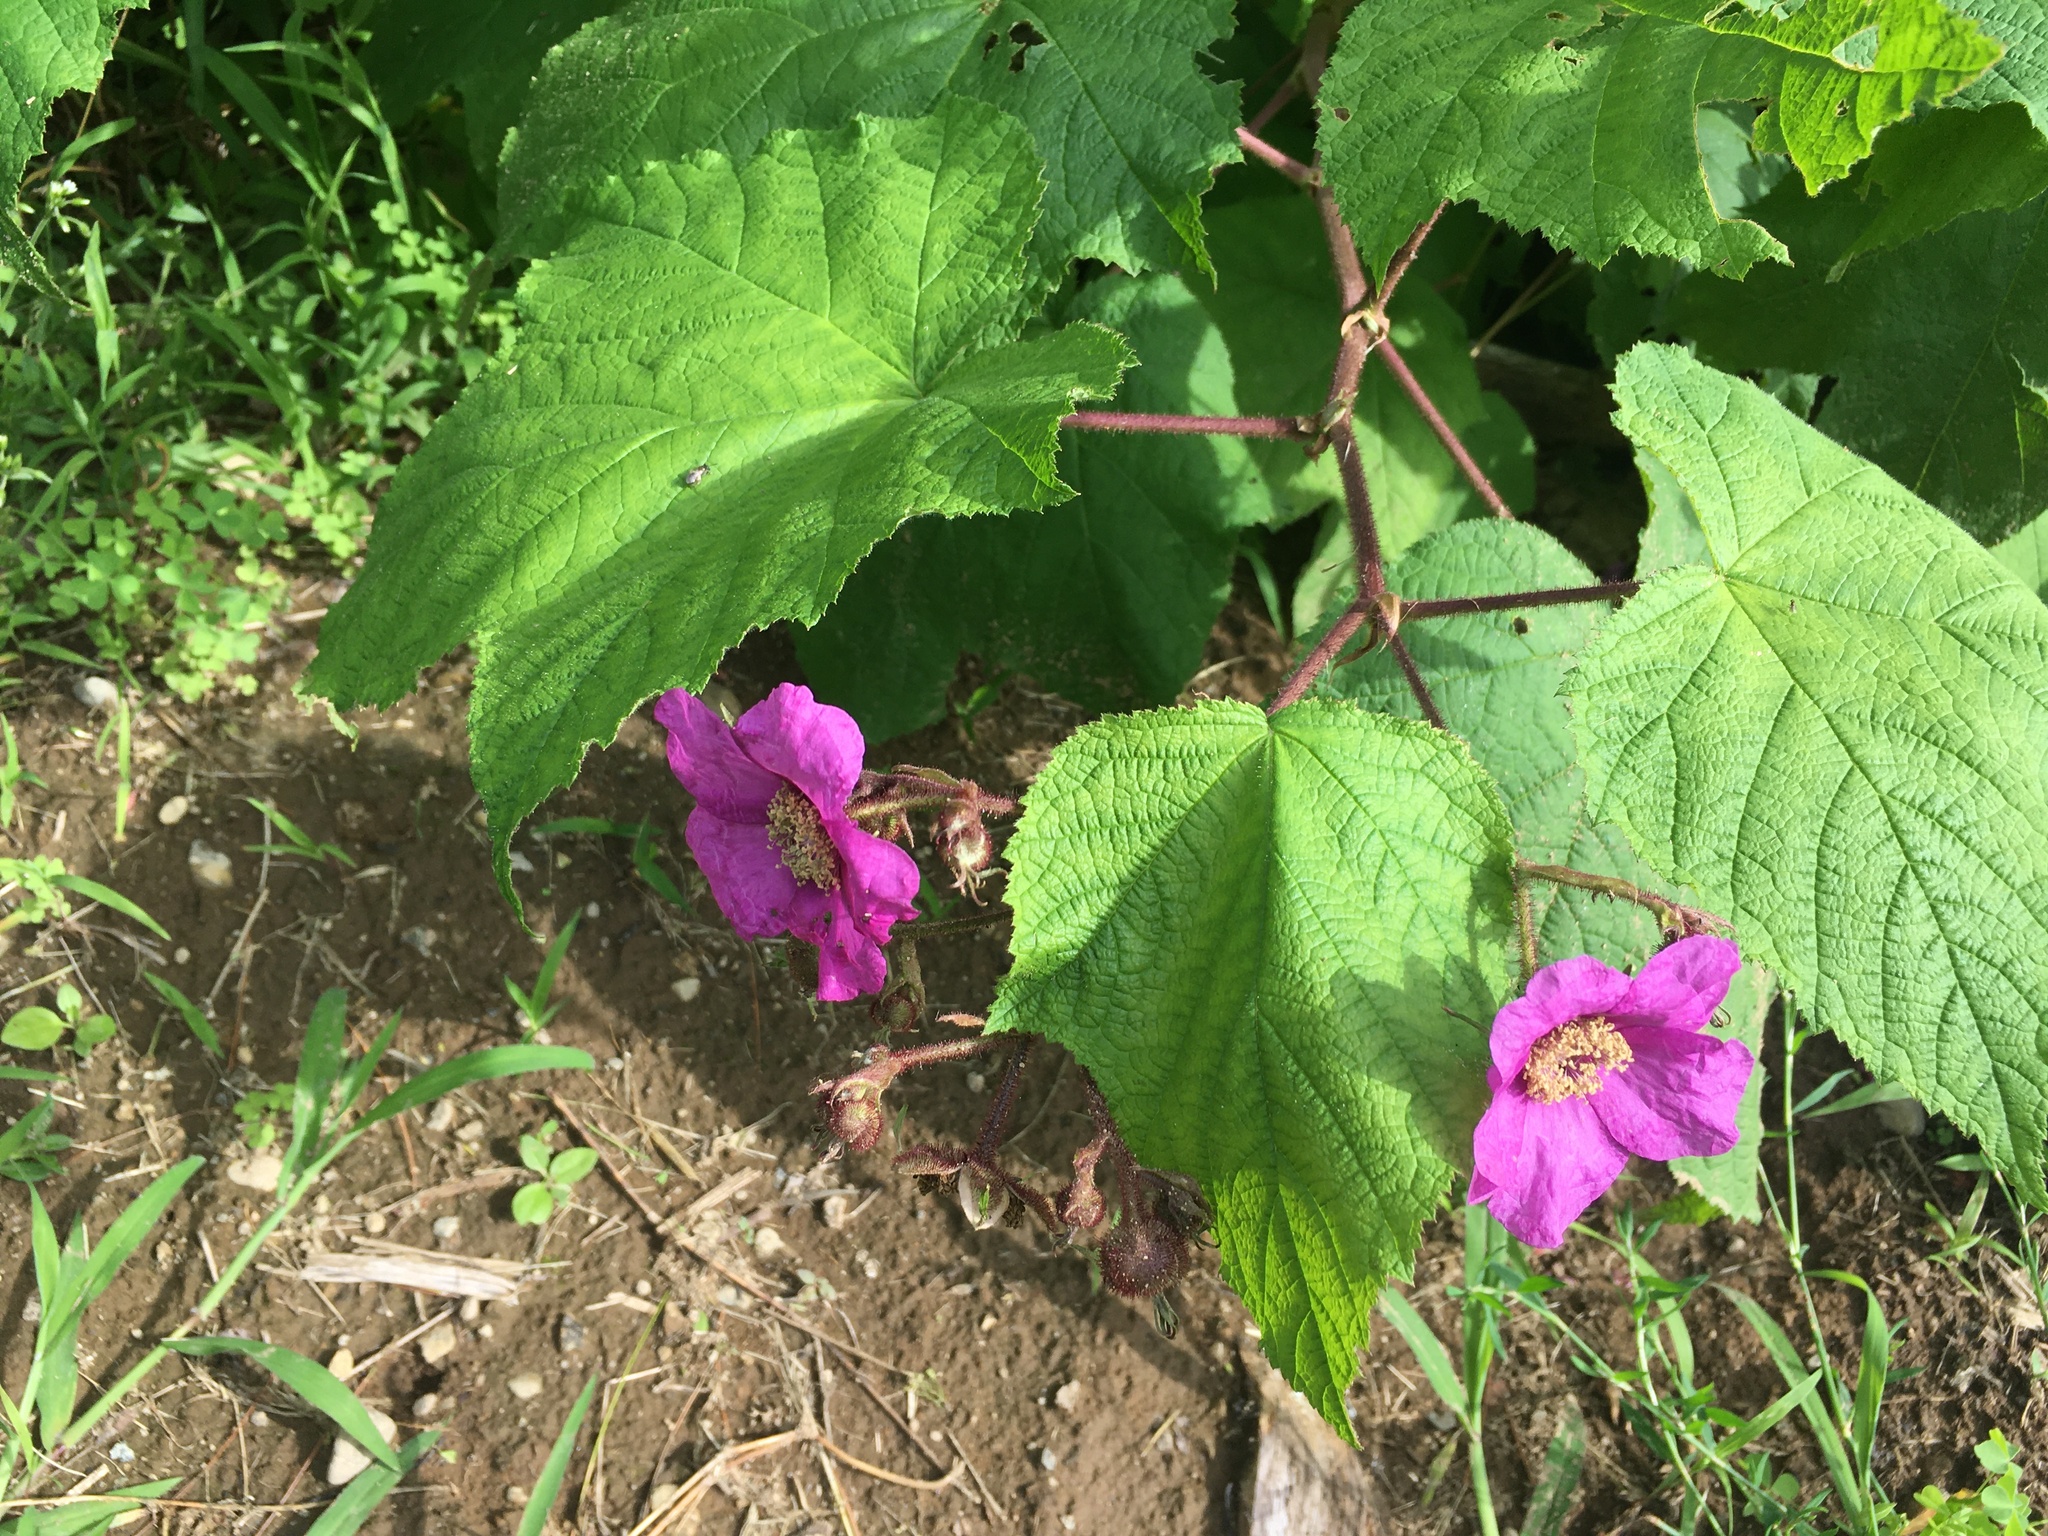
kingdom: Plantae
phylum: Tracheophyta
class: Magnoliopsida
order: Rosales
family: Rosaceae
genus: Rubus
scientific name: Rubus odoratus
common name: Purple-flowered raspberry
